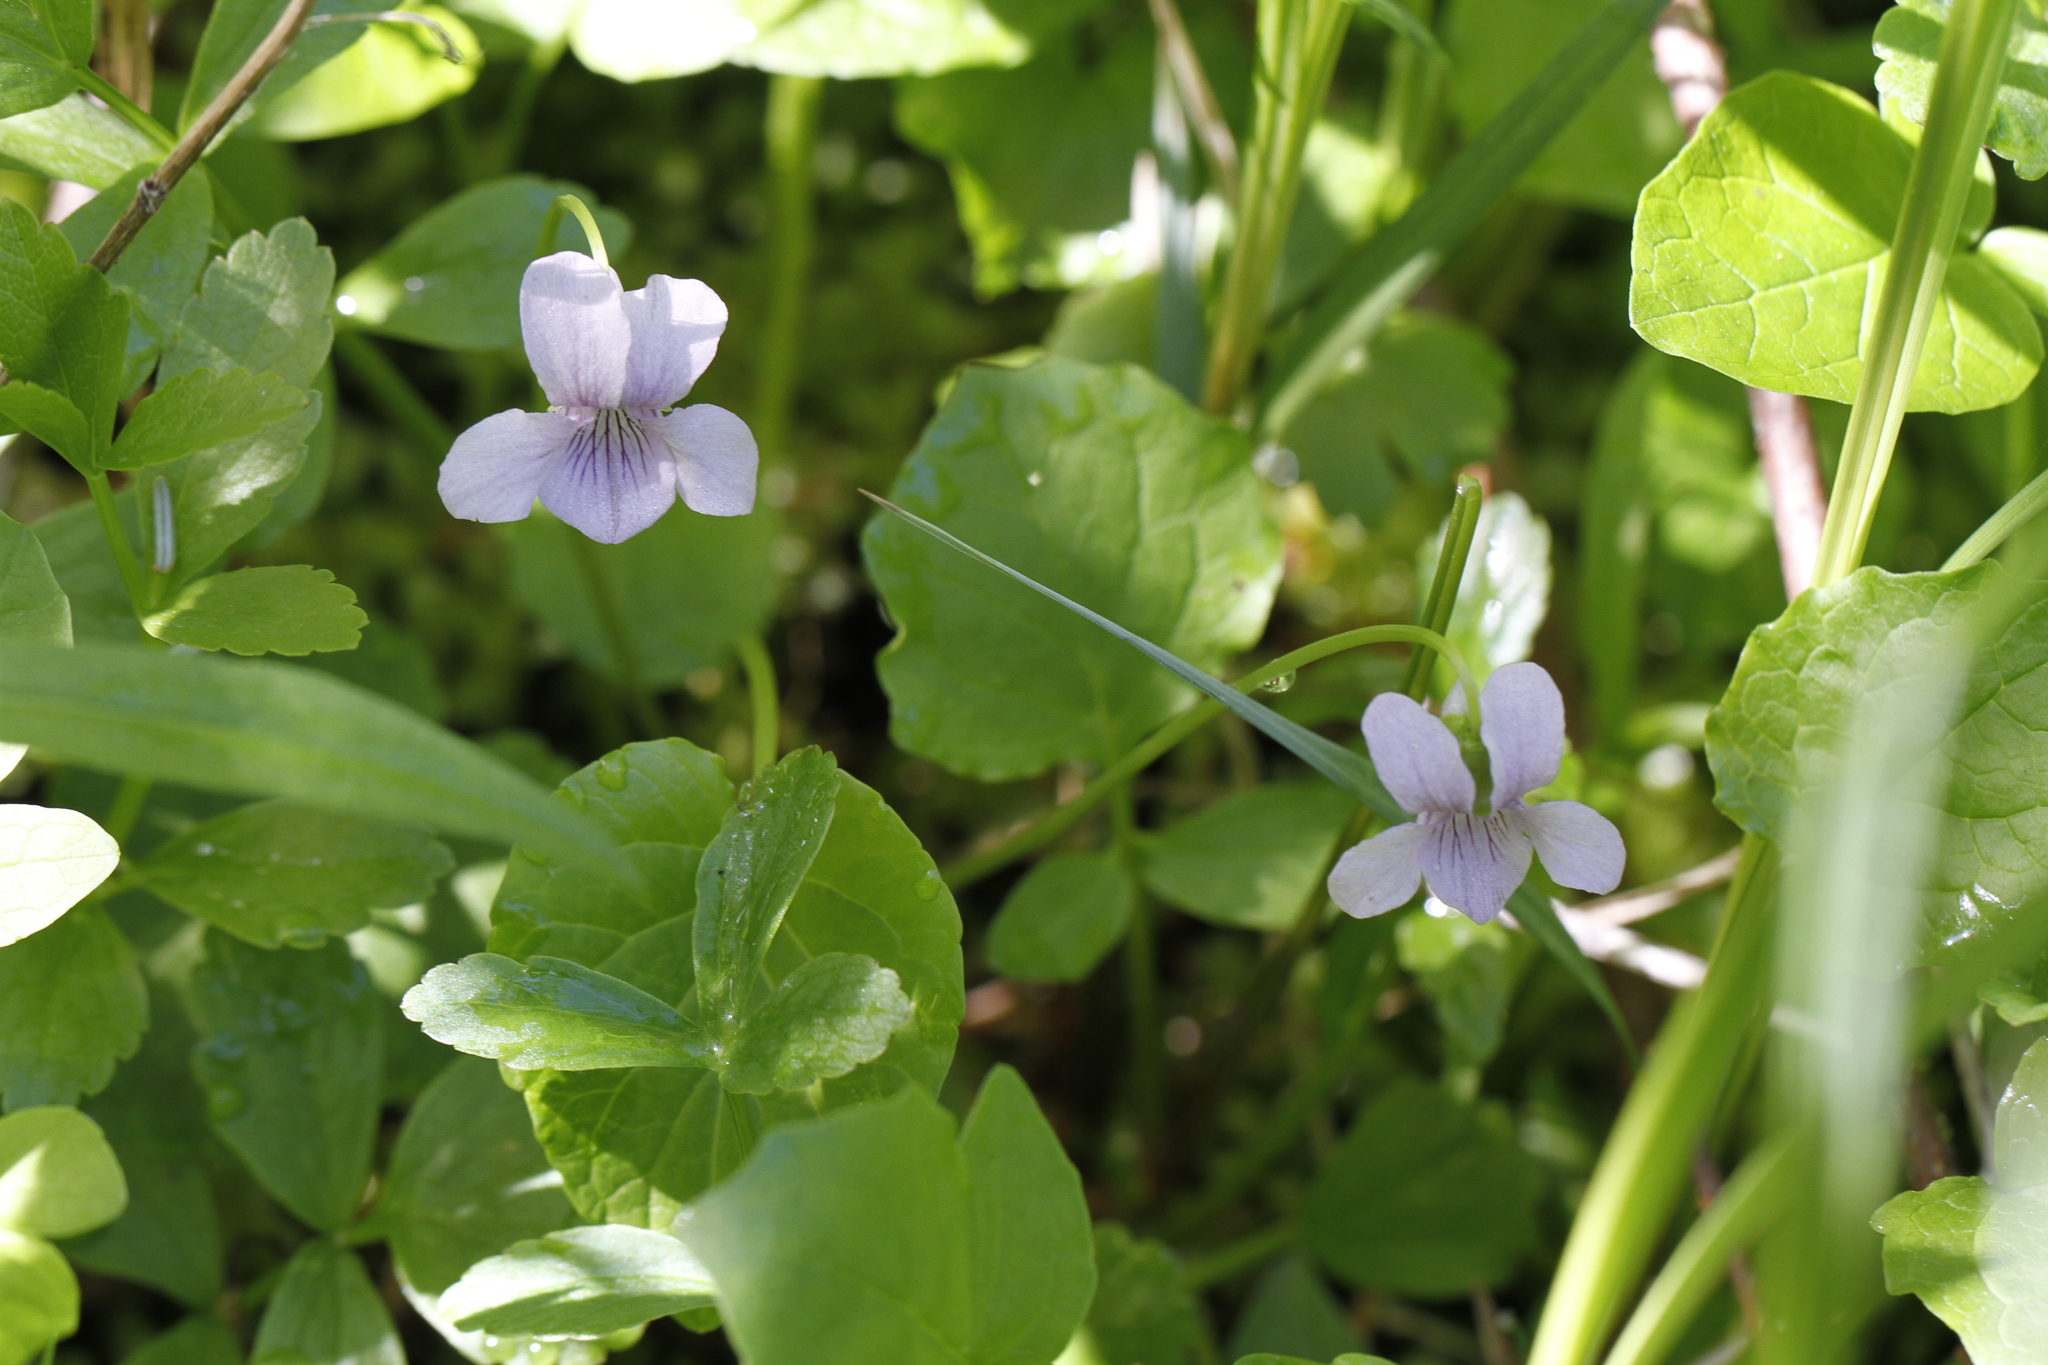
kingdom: Plantae
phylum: Tracheophyta
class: Magnoliopsida
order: Malpighiales
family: Violaceae
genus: Viola
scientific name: Viola palustris
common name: Marsh violet
